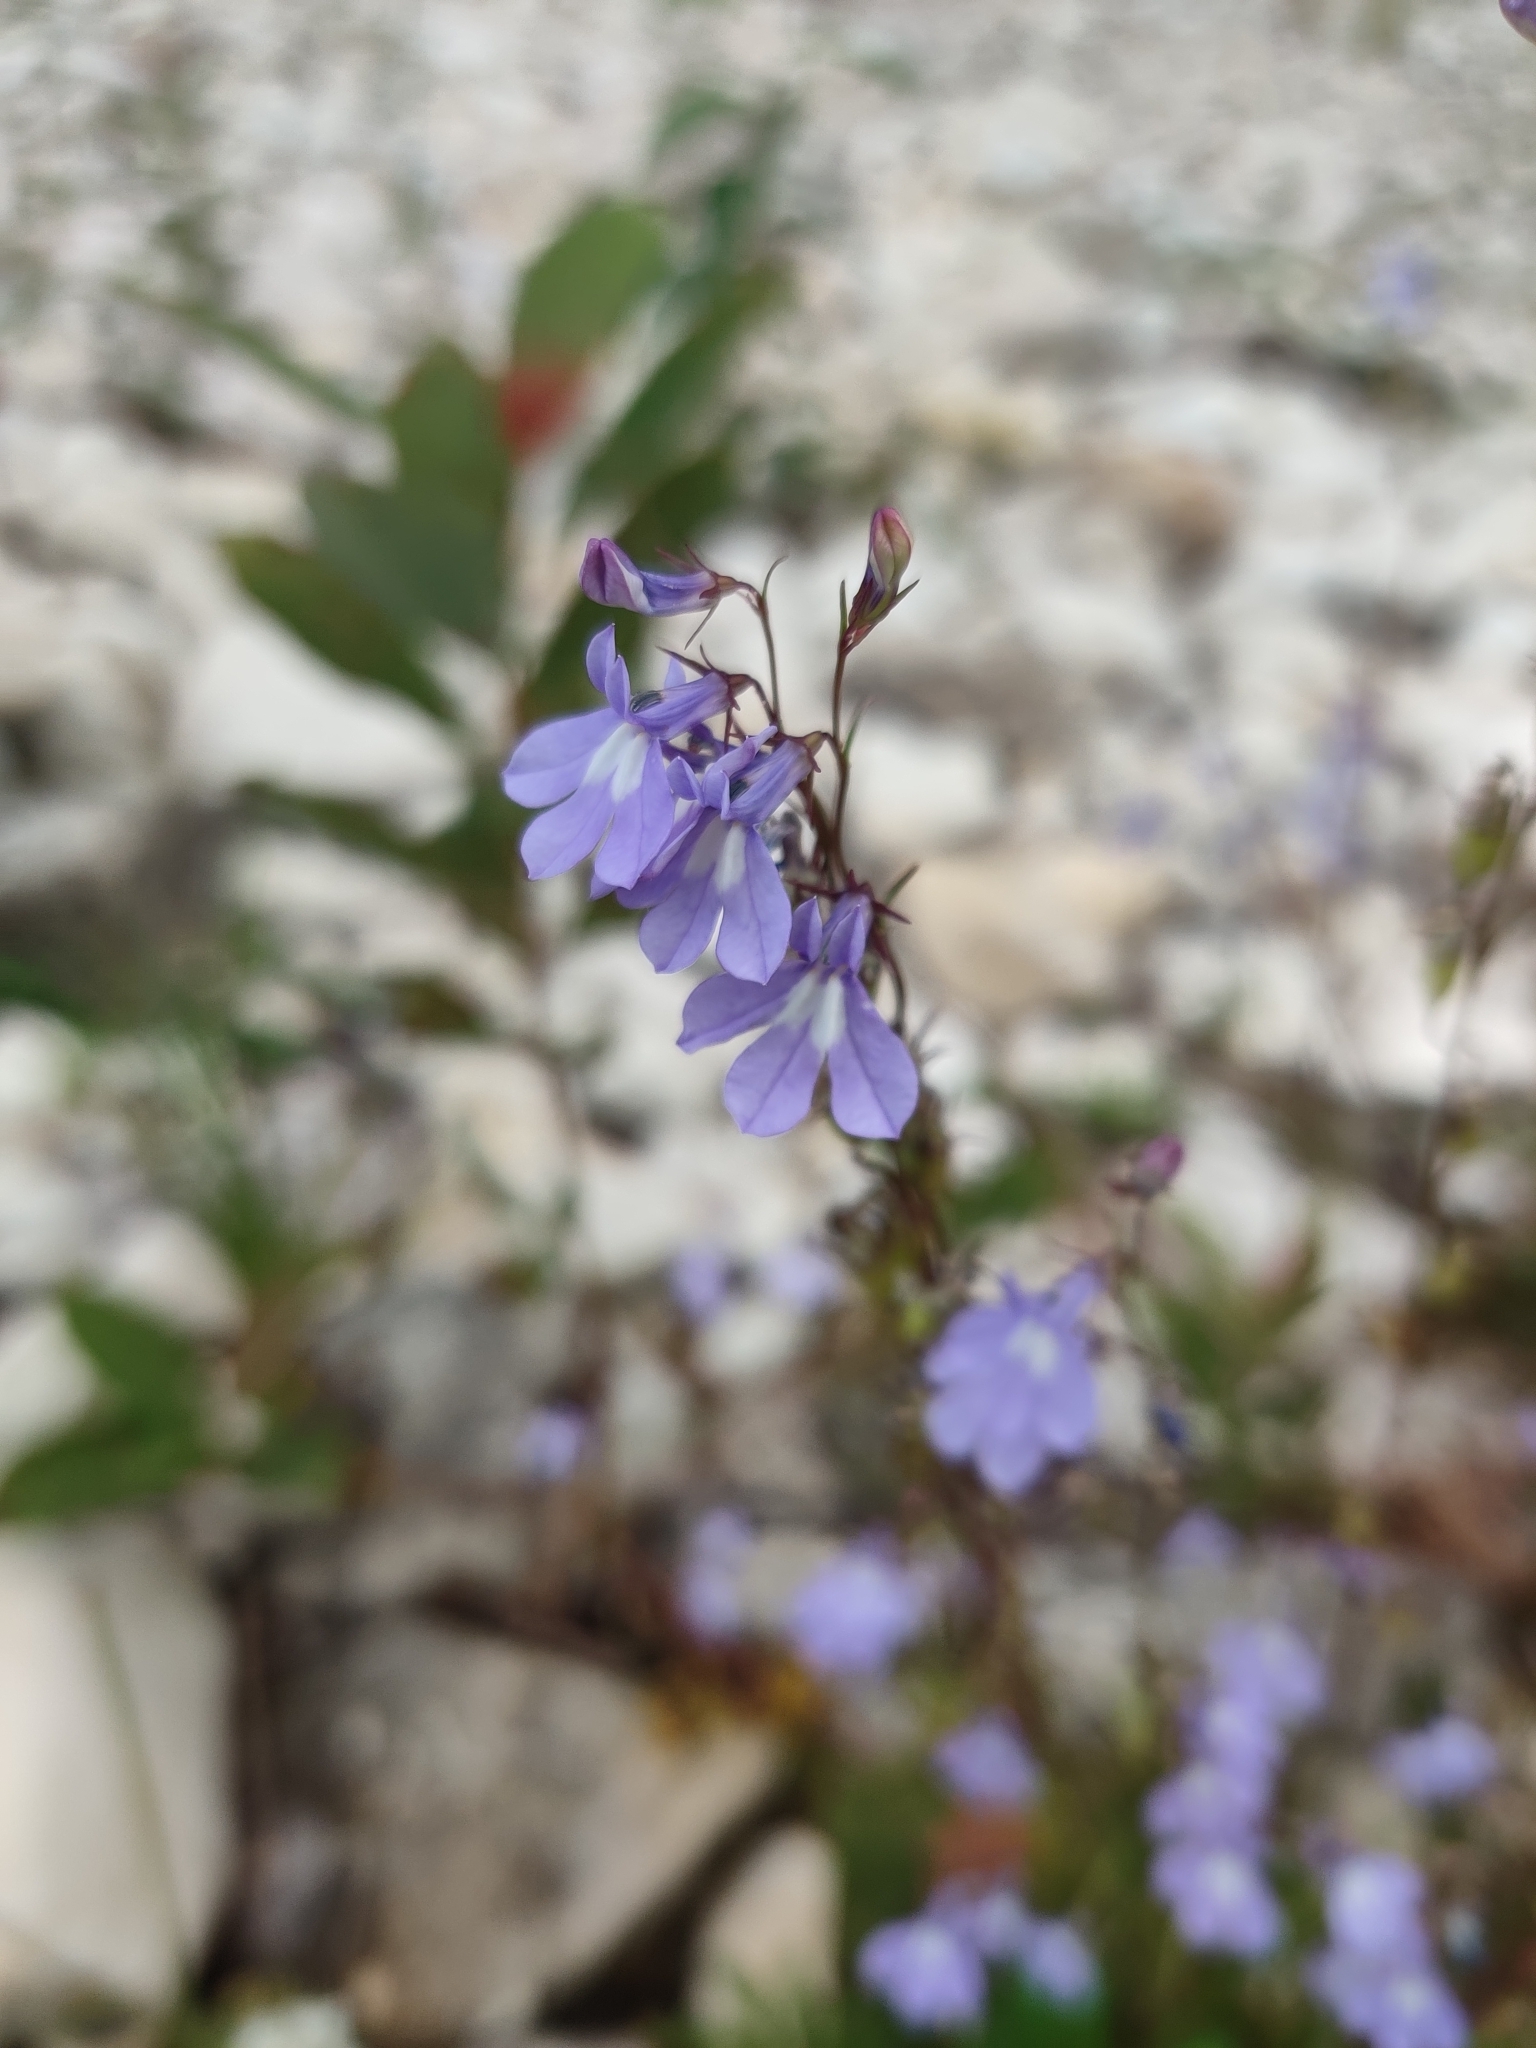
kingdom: Plantae
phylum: Tracheophyta
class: Magnoliopsida
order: Asterales
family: Campanulaceae
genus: Lobelia
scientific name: Lobelia kalmii
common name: Kalm's lobelia
